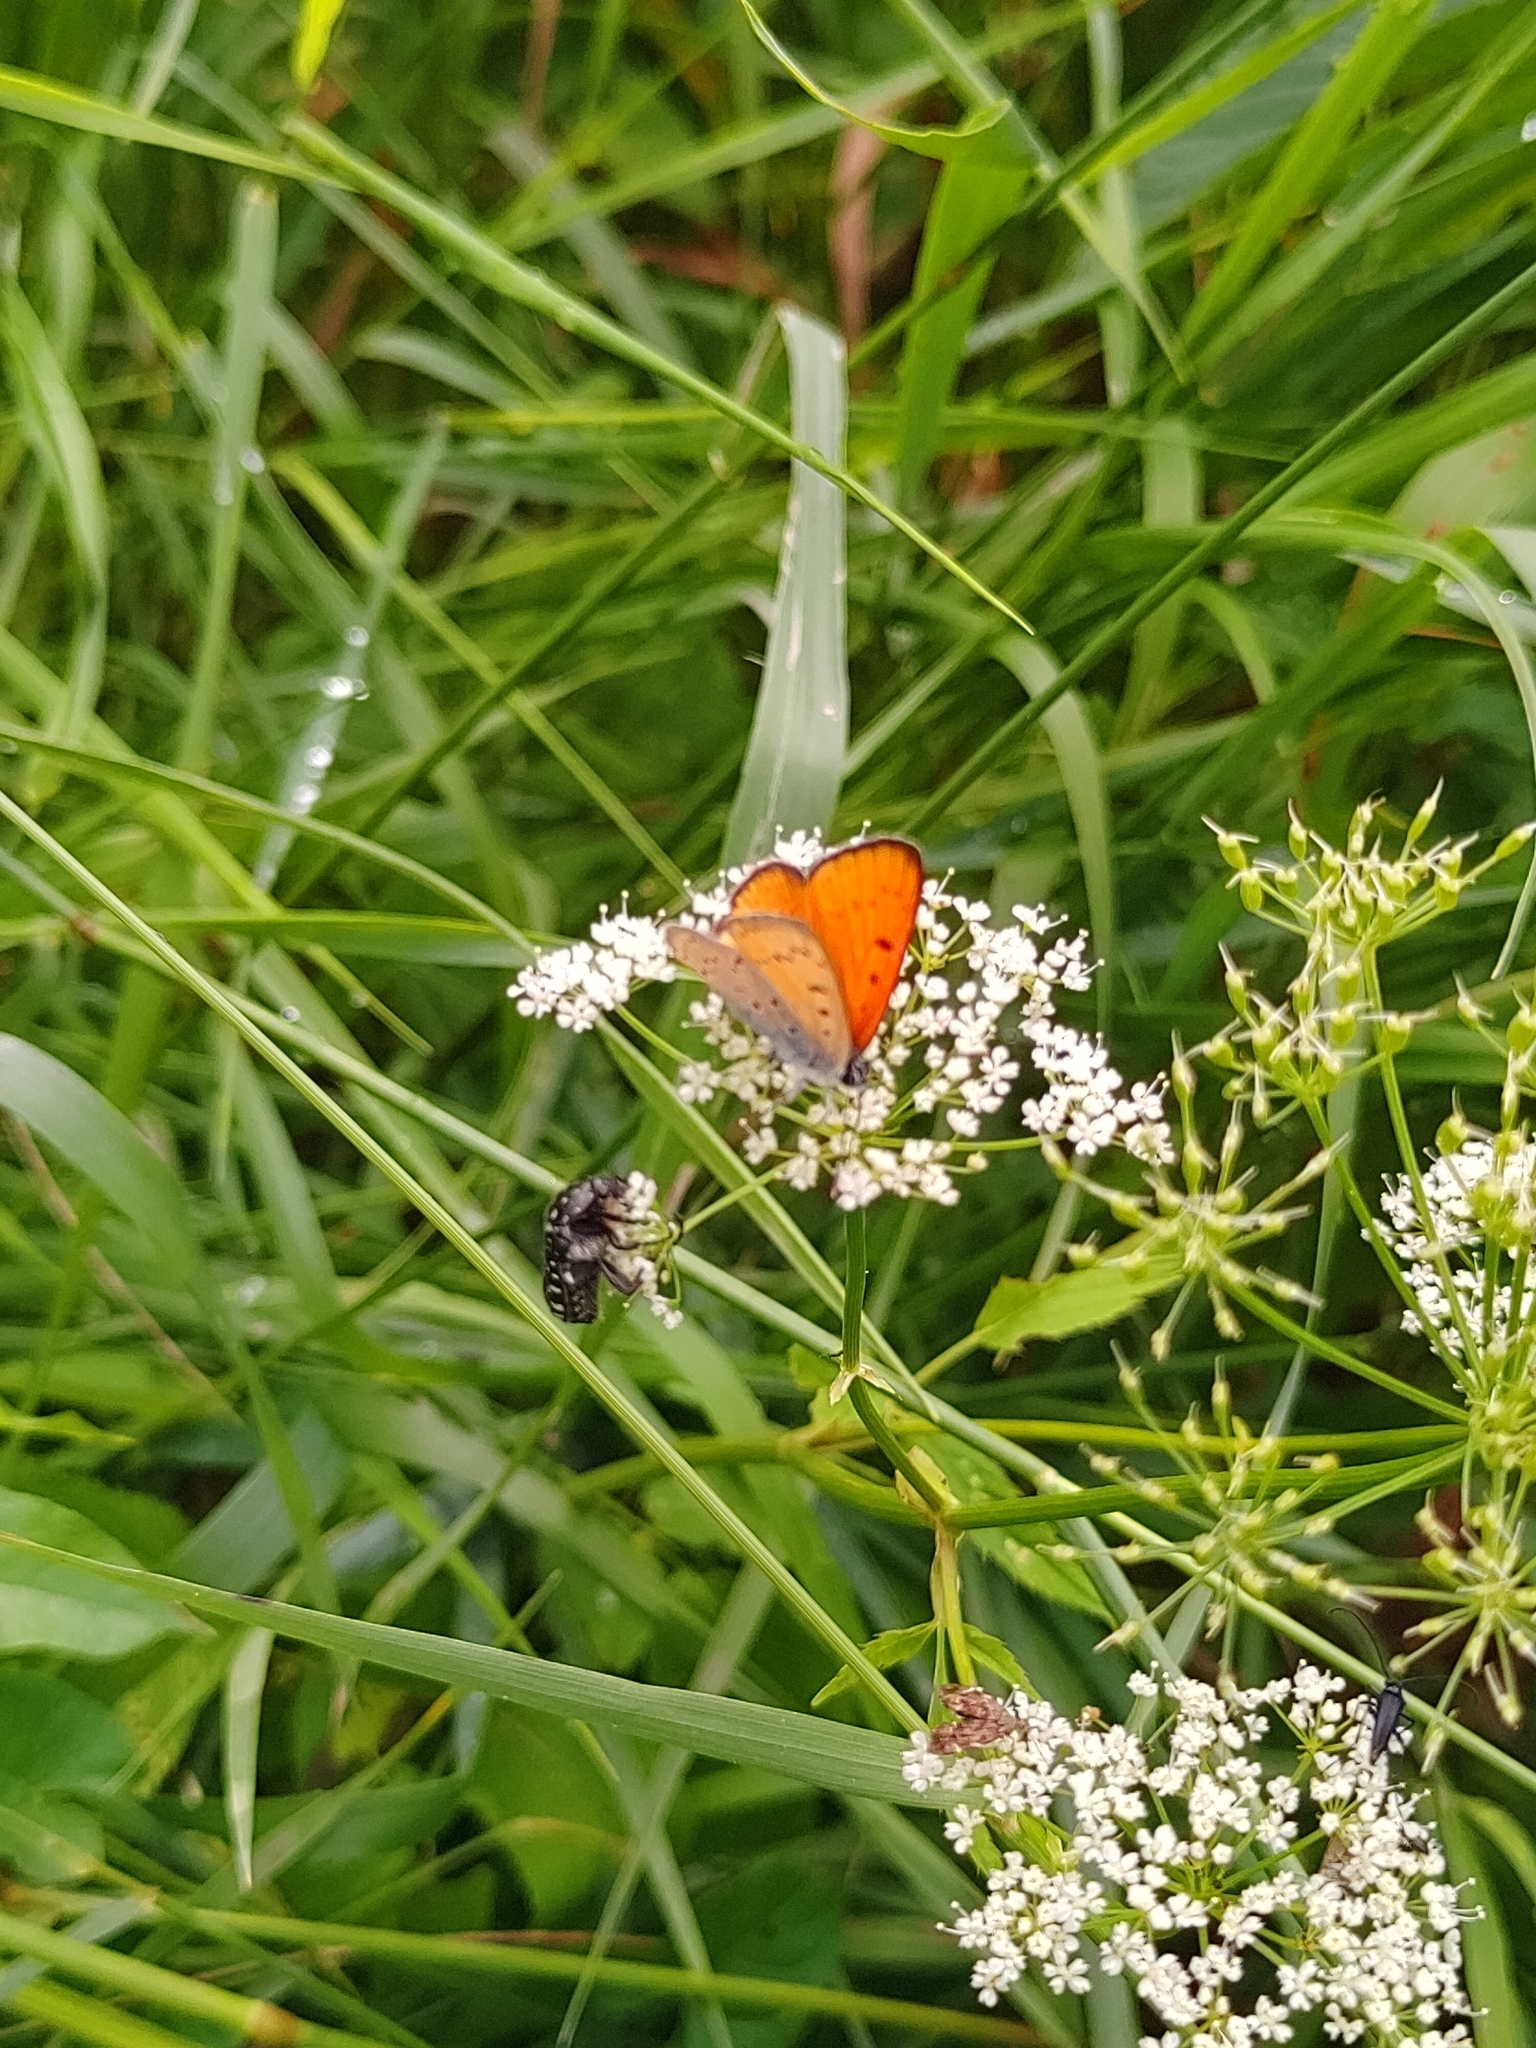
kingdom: Animalia
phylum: Arthropoda
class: Insecta
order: Lepidoptera
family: Lycaenidae
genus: Lycaena
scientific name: Lycaena dispar
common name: Large copper
